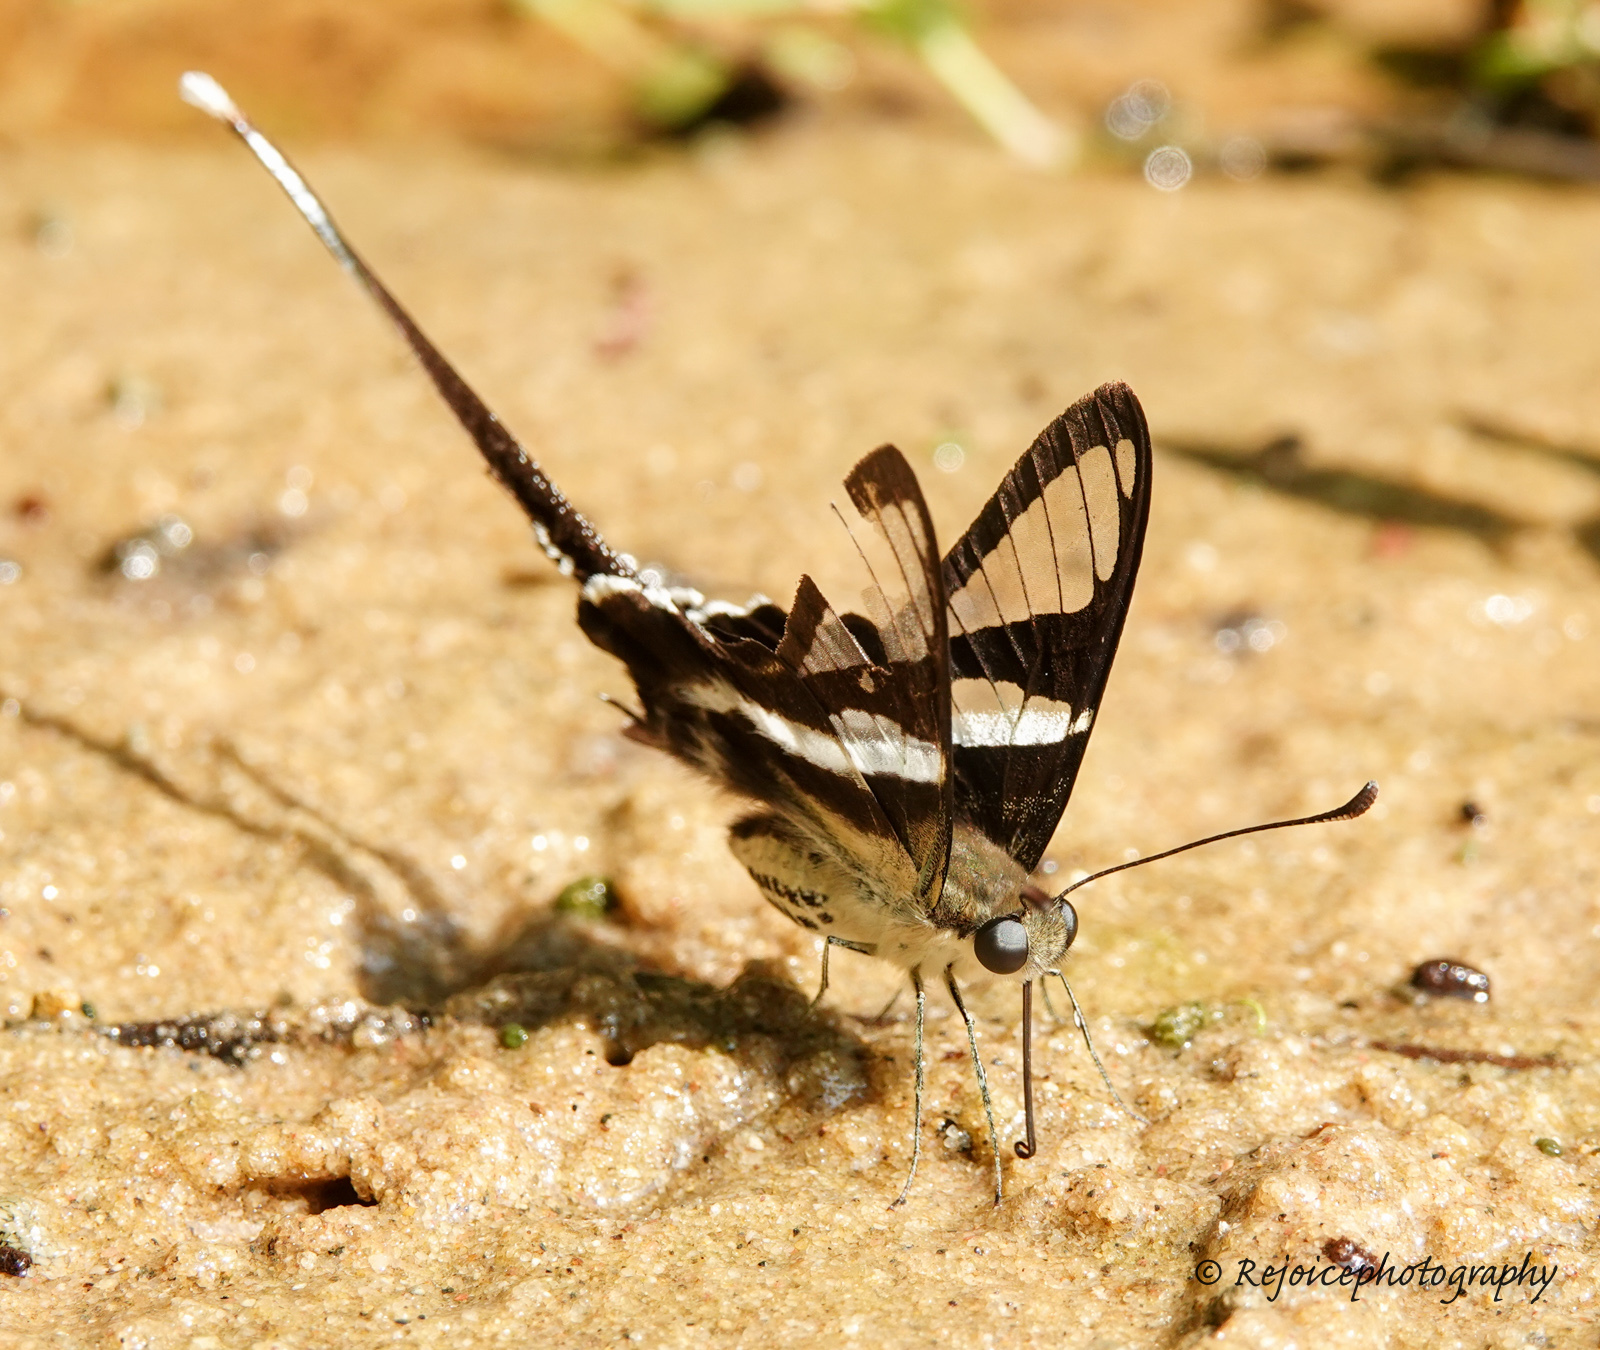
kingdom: Animalia
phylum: Arthropoda
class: Insecta
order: Lepidoptera
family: Papilionidae
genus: Lamproptera
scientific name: Lamproptera curius
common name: White dragontail
